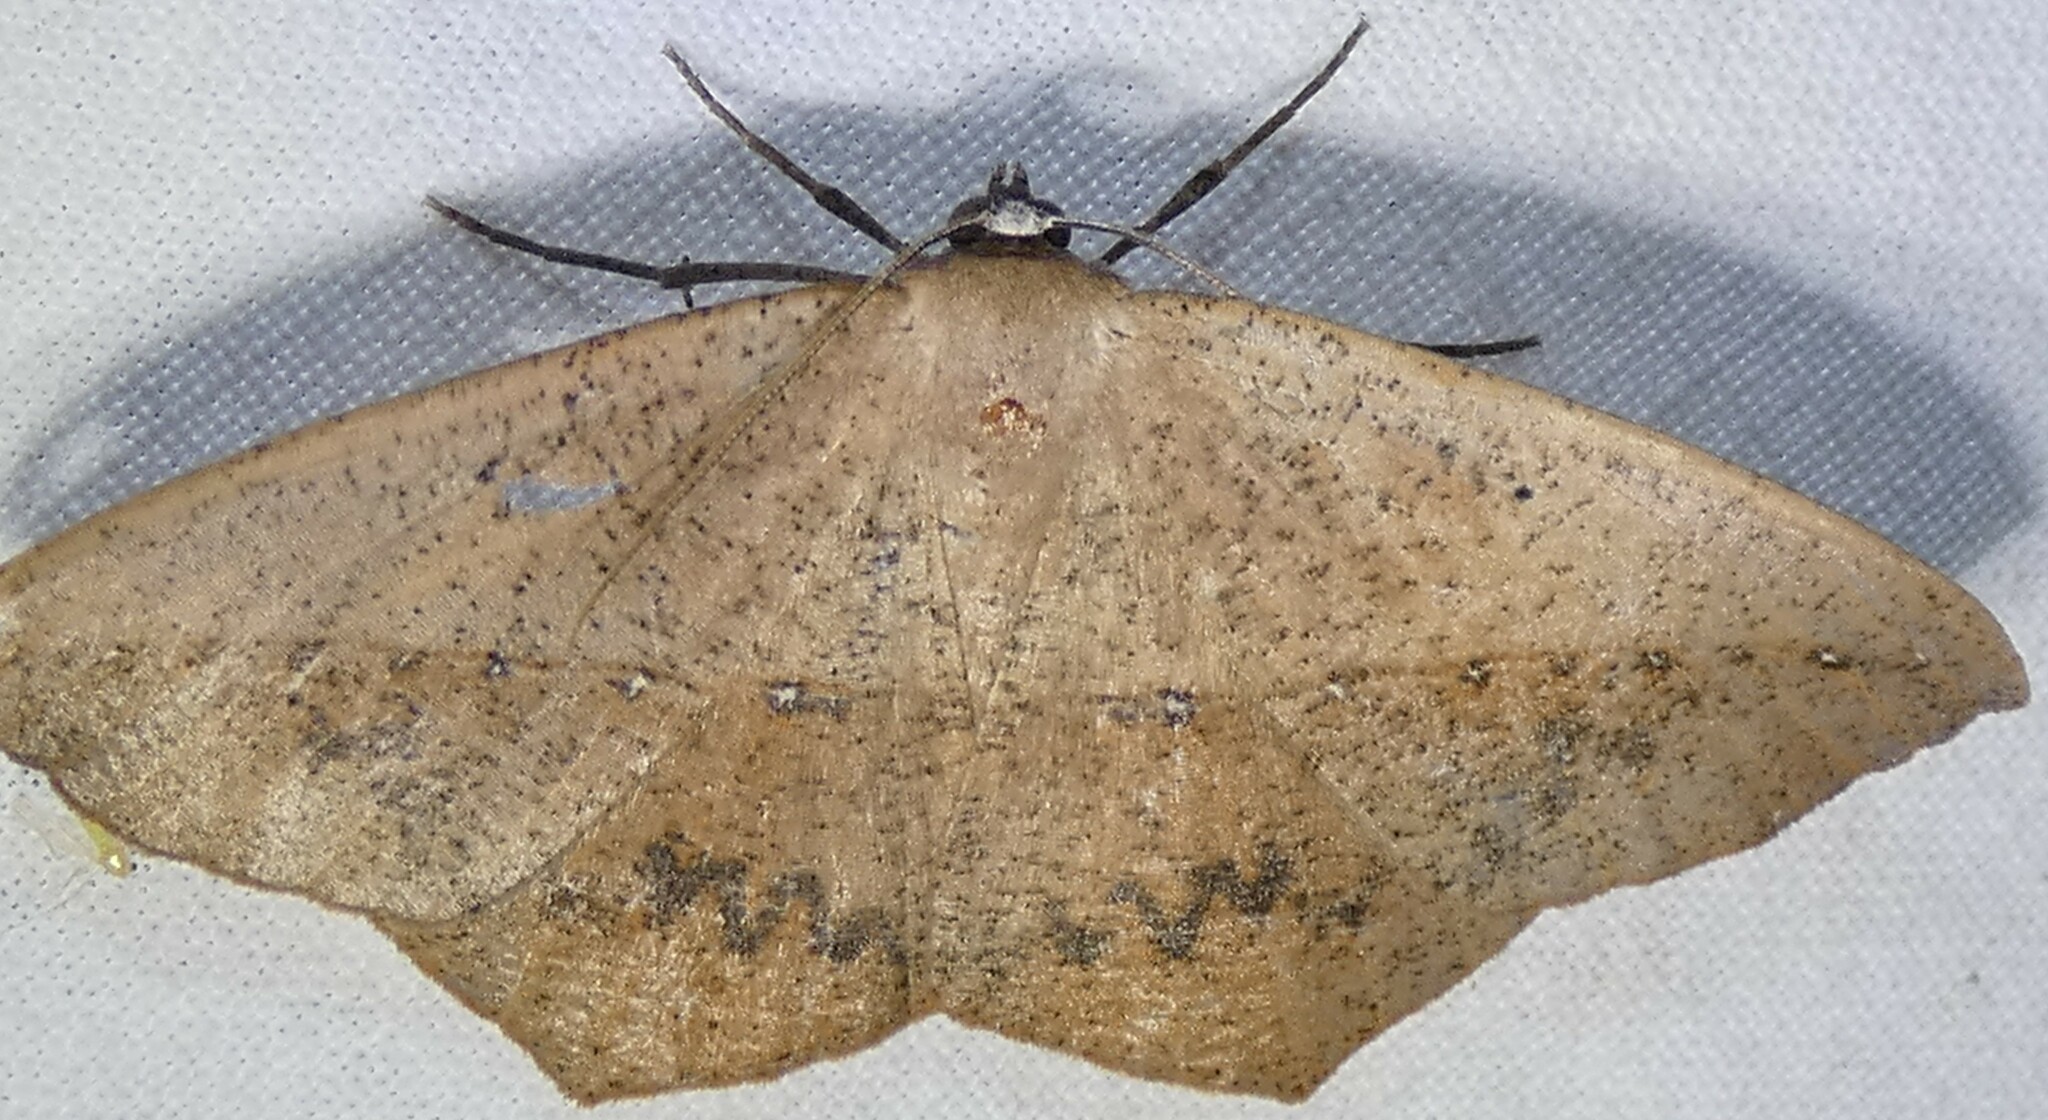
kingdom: Animalia
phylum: Arthropoda
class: Insecta
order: Lepidoptera
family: Geometridae
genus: Prochoerodes
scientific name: Prochoerodes lineola
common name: Large maple spanworm
